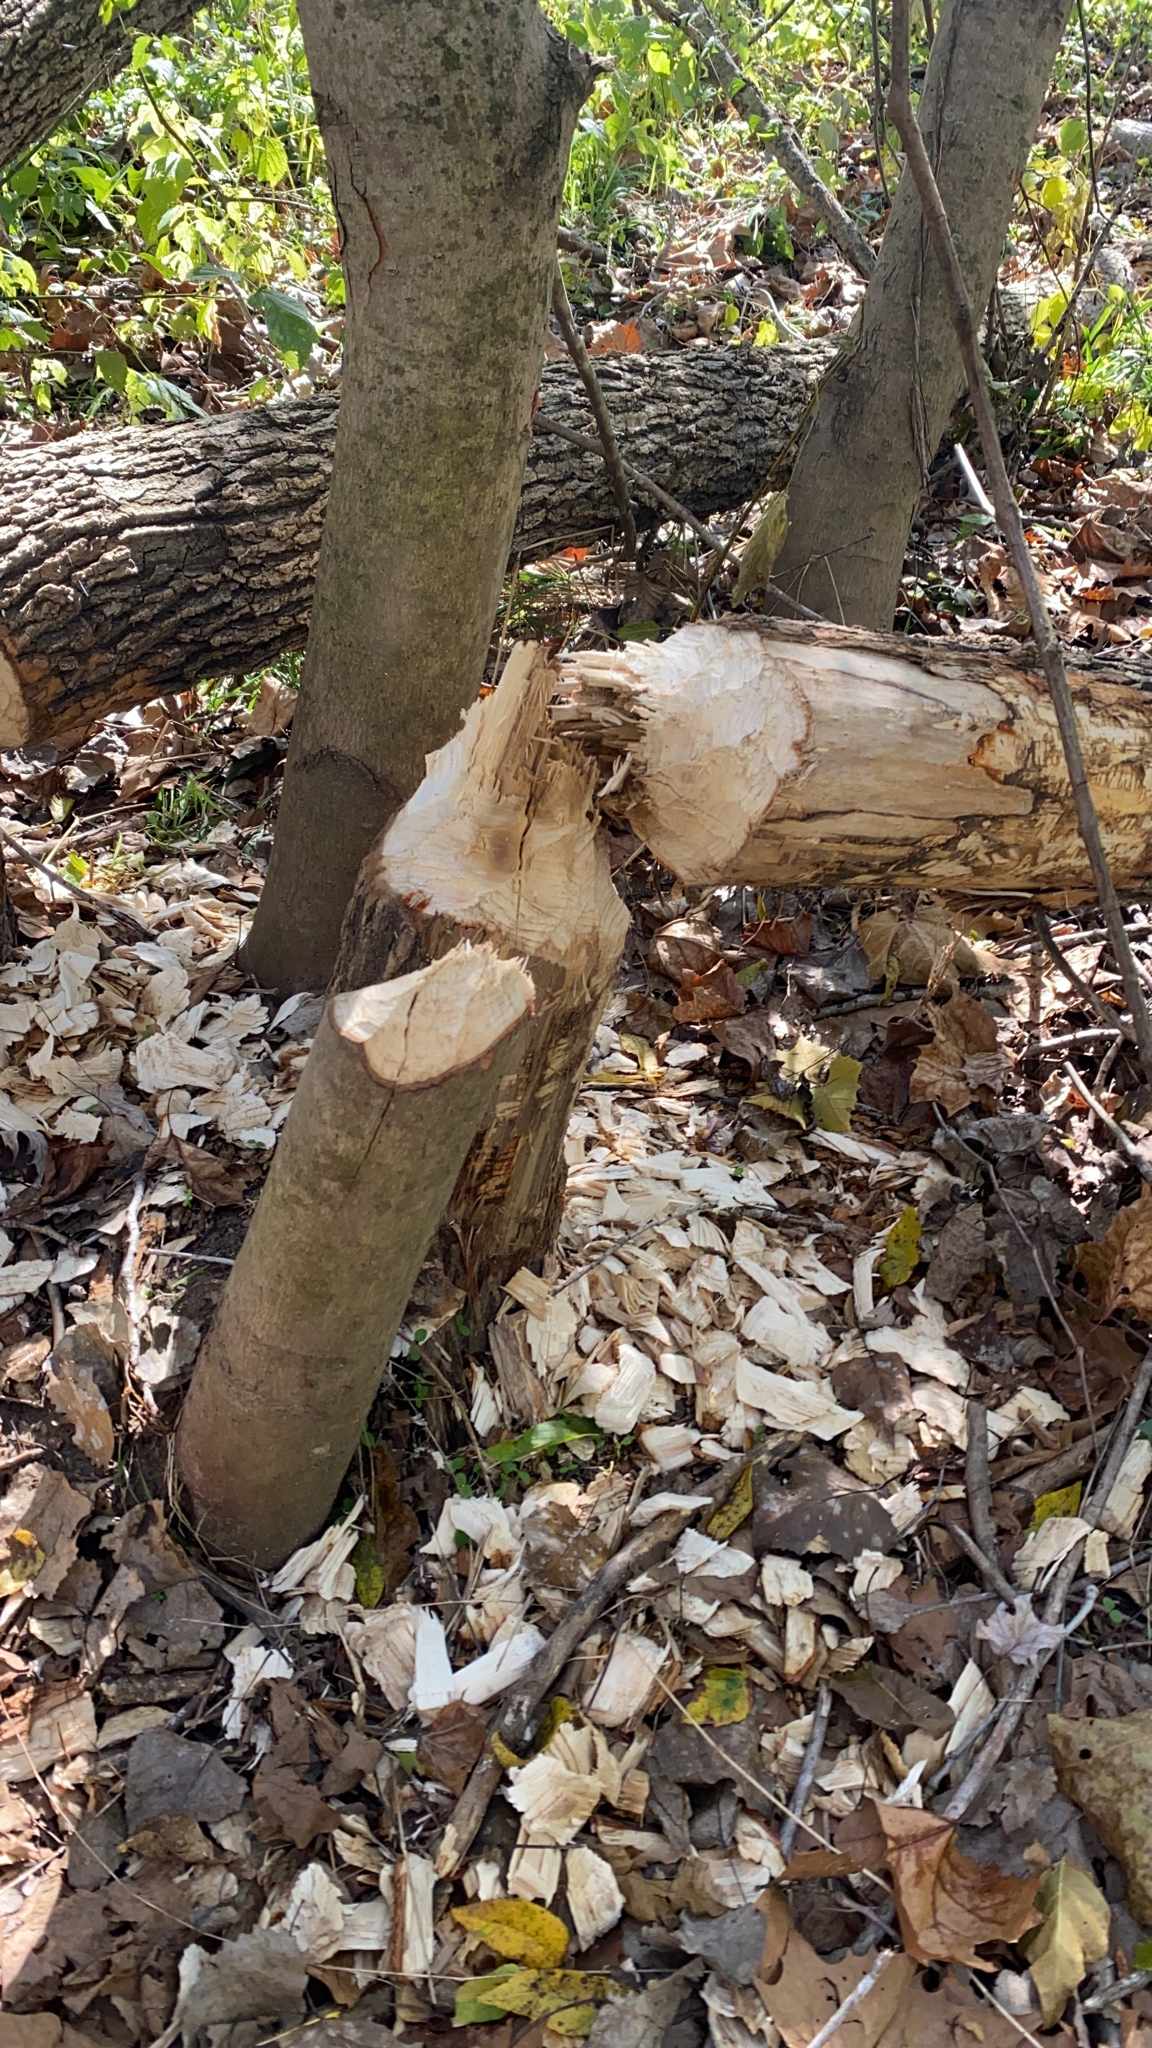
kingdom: Animalia
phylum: Chordata
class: Mammalia
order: Rodentia
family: Castoridae
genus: Castor
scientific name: Castor canadensis
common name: American beaver
